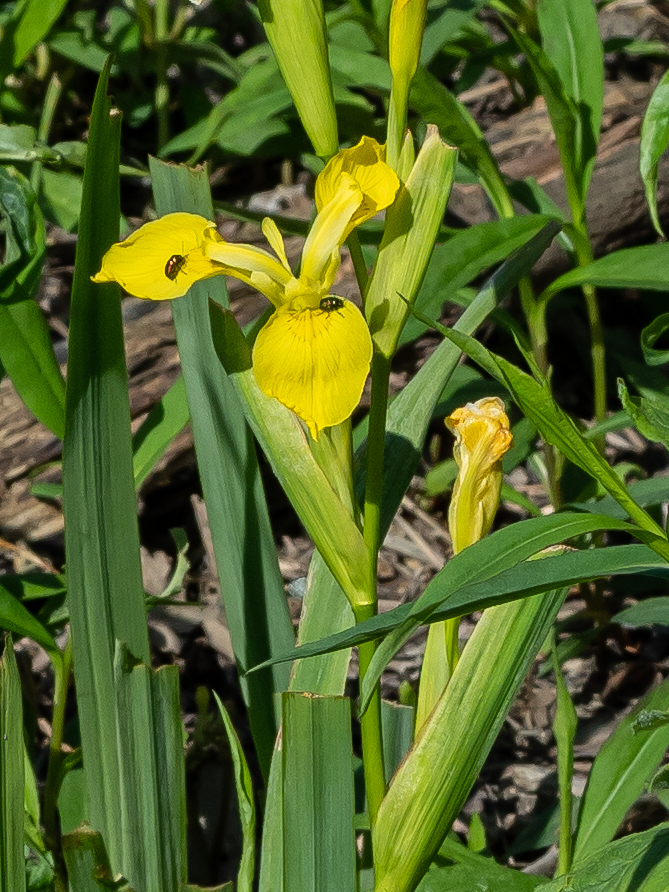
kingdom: Plantae
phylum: Tracheophyta
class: Liliopsida
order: Asparagales
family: Iridaceae
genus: Iris
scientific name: Iris pseudacorus
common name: Yellow flag
